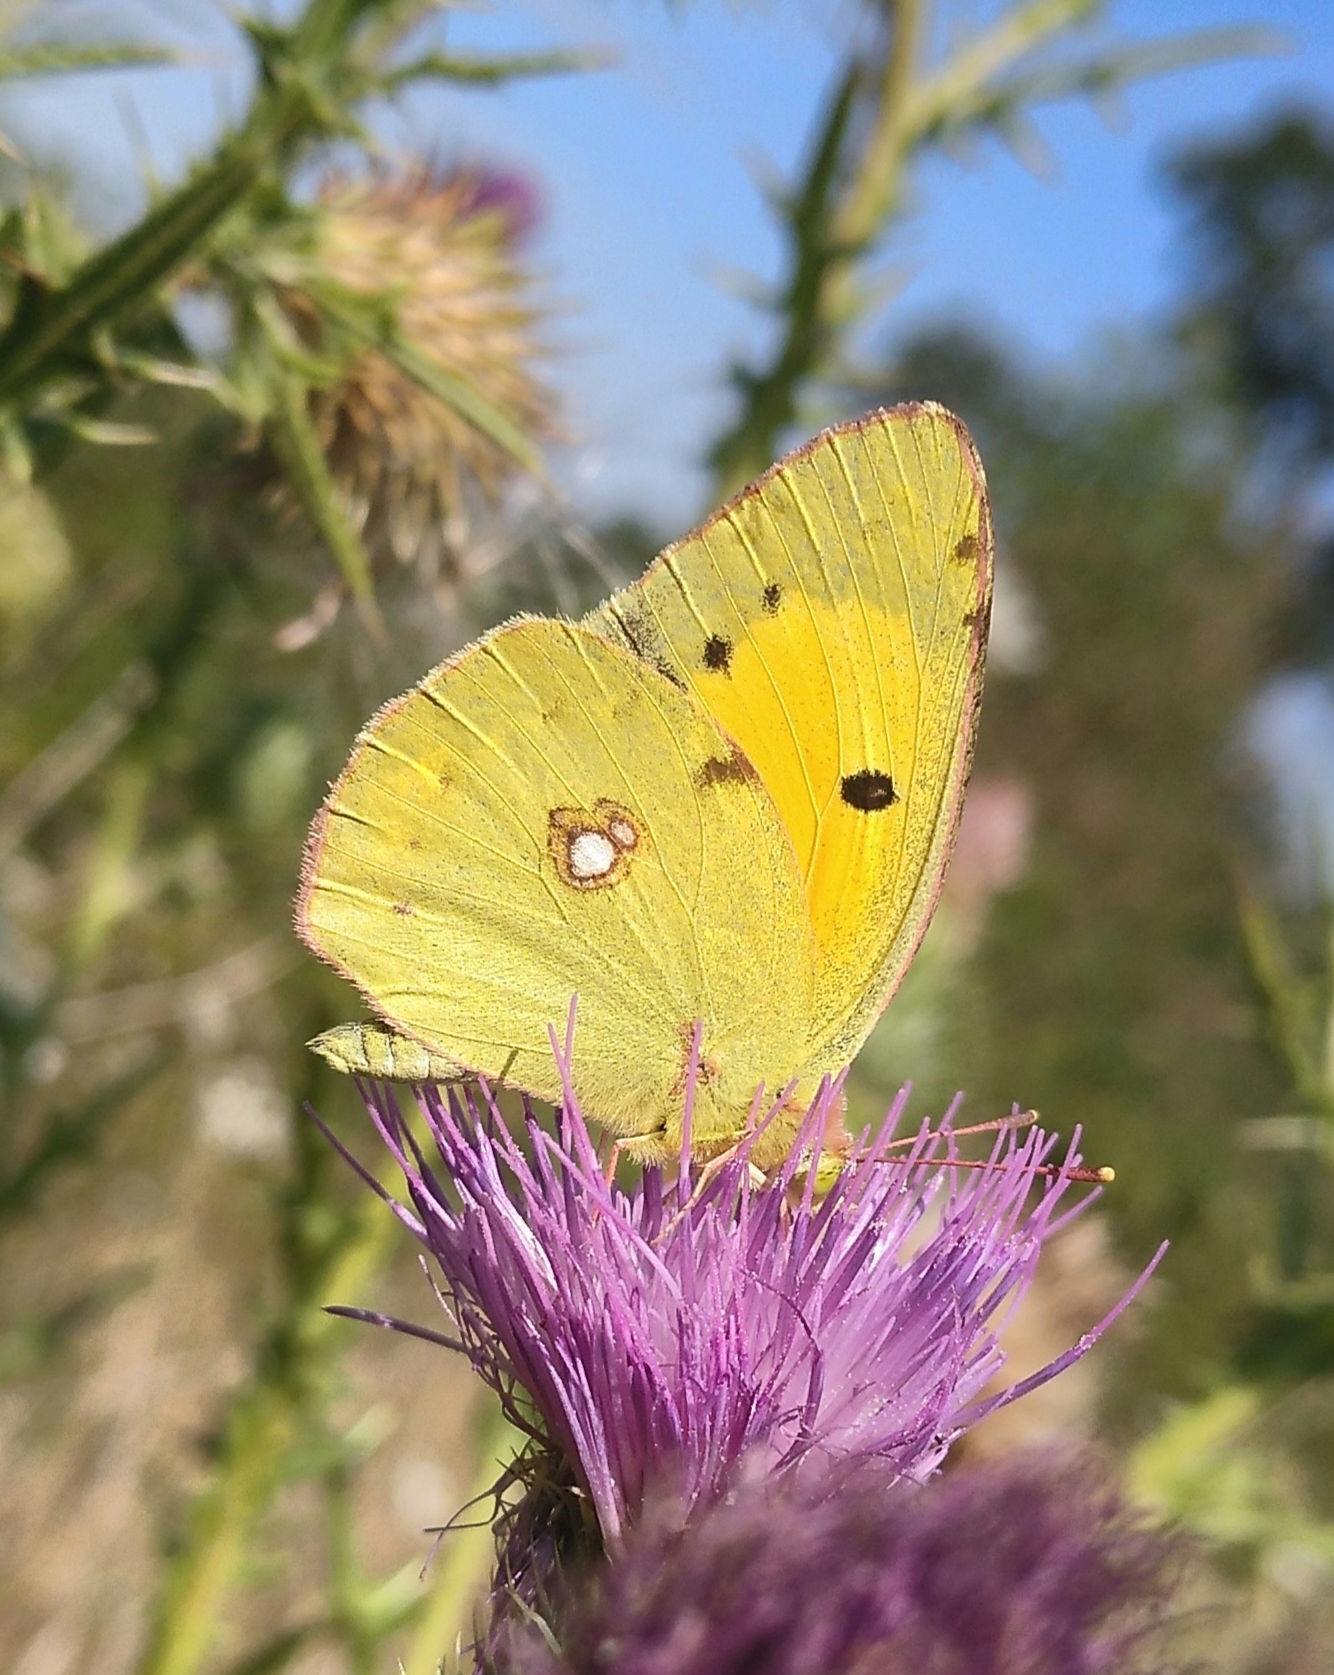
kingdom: Animalia
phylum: Arthropoda
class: Insecta
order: Lepidoptera
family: Pieridae
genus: Colias
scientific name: Colias croceus
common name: Clouded yellow
